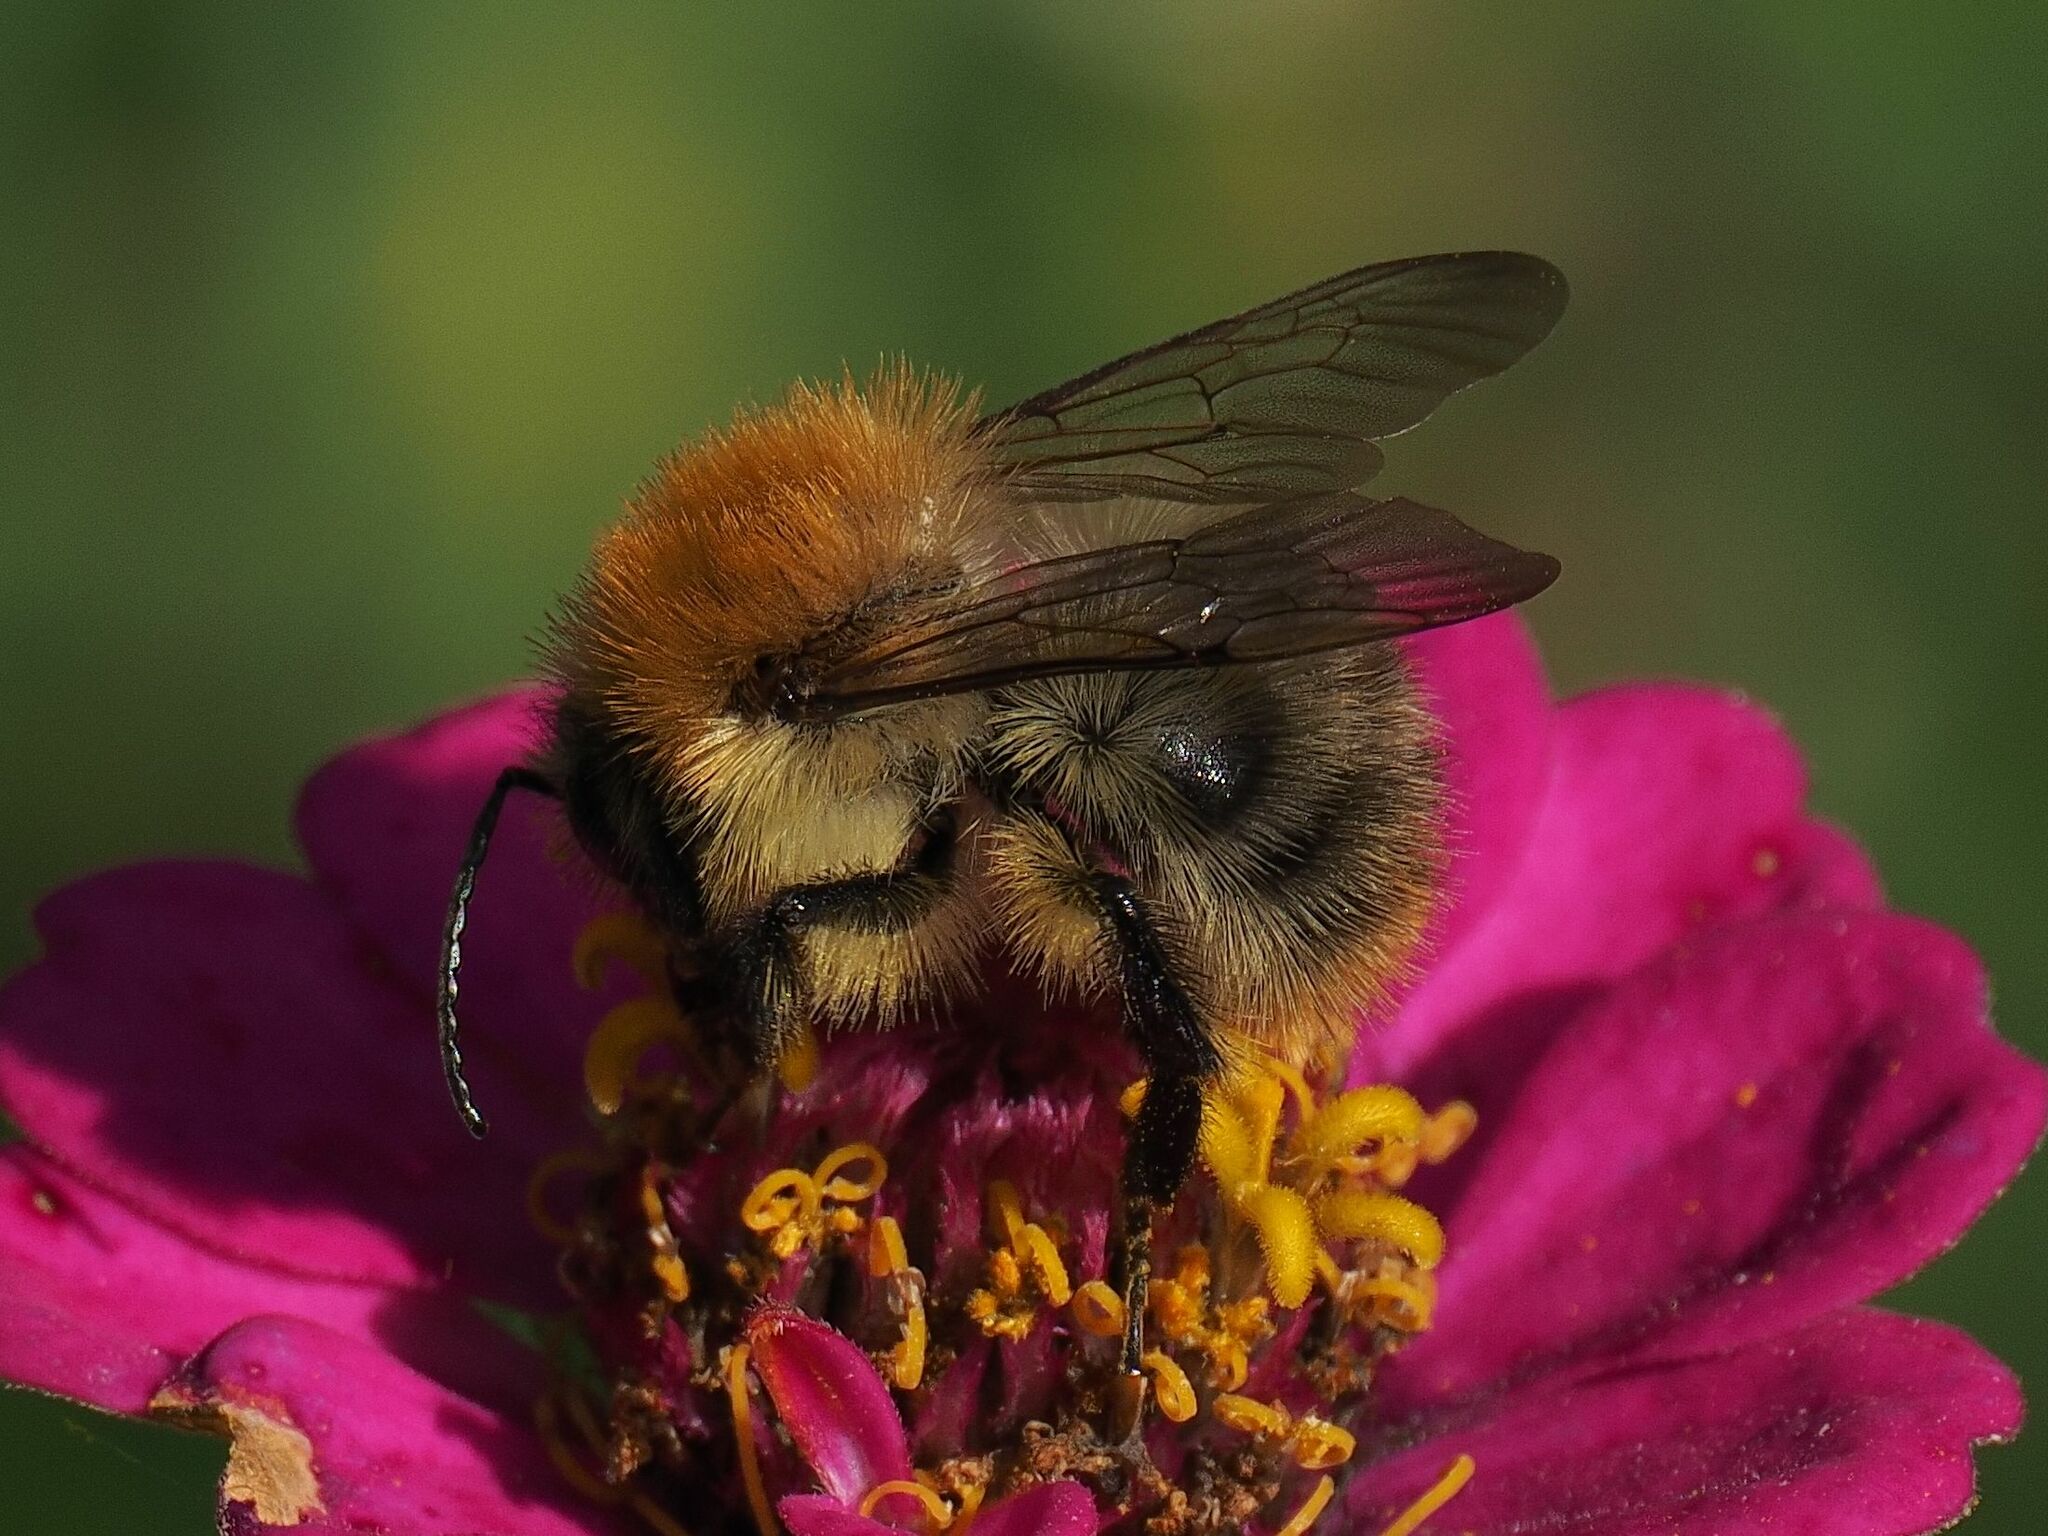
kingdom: Animalia
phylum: Arthropoda
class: Insecta
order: Hymenoptera
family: Apidae
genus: Bombus
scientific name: Bombus pascuorum
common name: Common carder bee
